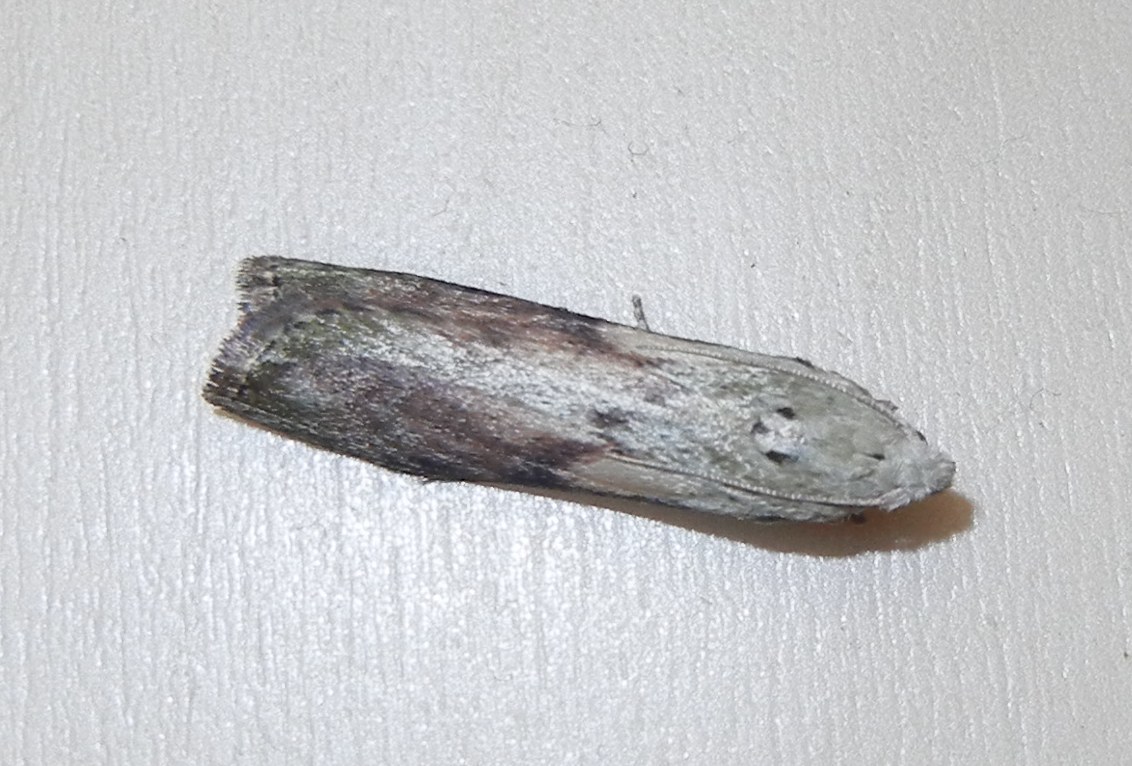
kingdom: Animalia
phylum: Arthropoda
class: Insecta
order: Lepidoptera
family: Pyralidae
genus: Aphomia
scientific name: Aphomia sociella
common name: Bee moth
